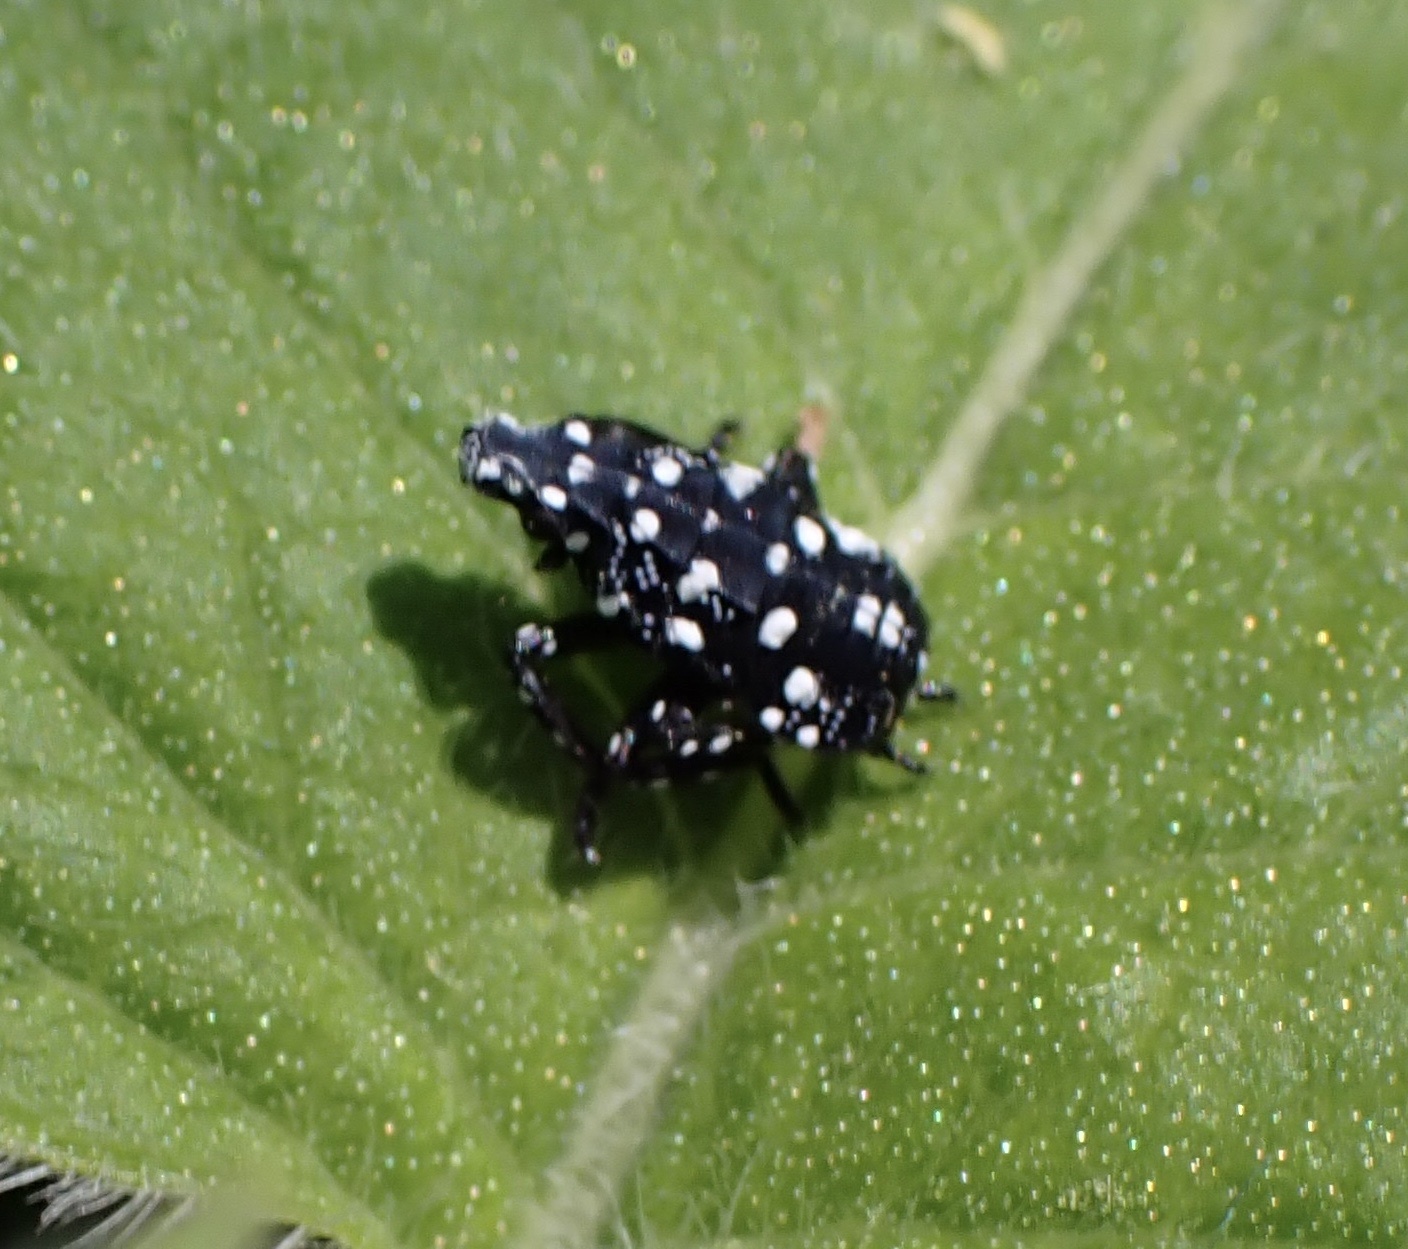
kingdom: Animalia
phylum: Arthropoda
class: Insecta
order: Hemiptera
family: Fulgoridae
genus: Lycorma
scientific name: Lycorma delicatula
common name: Spotted lanternfly
